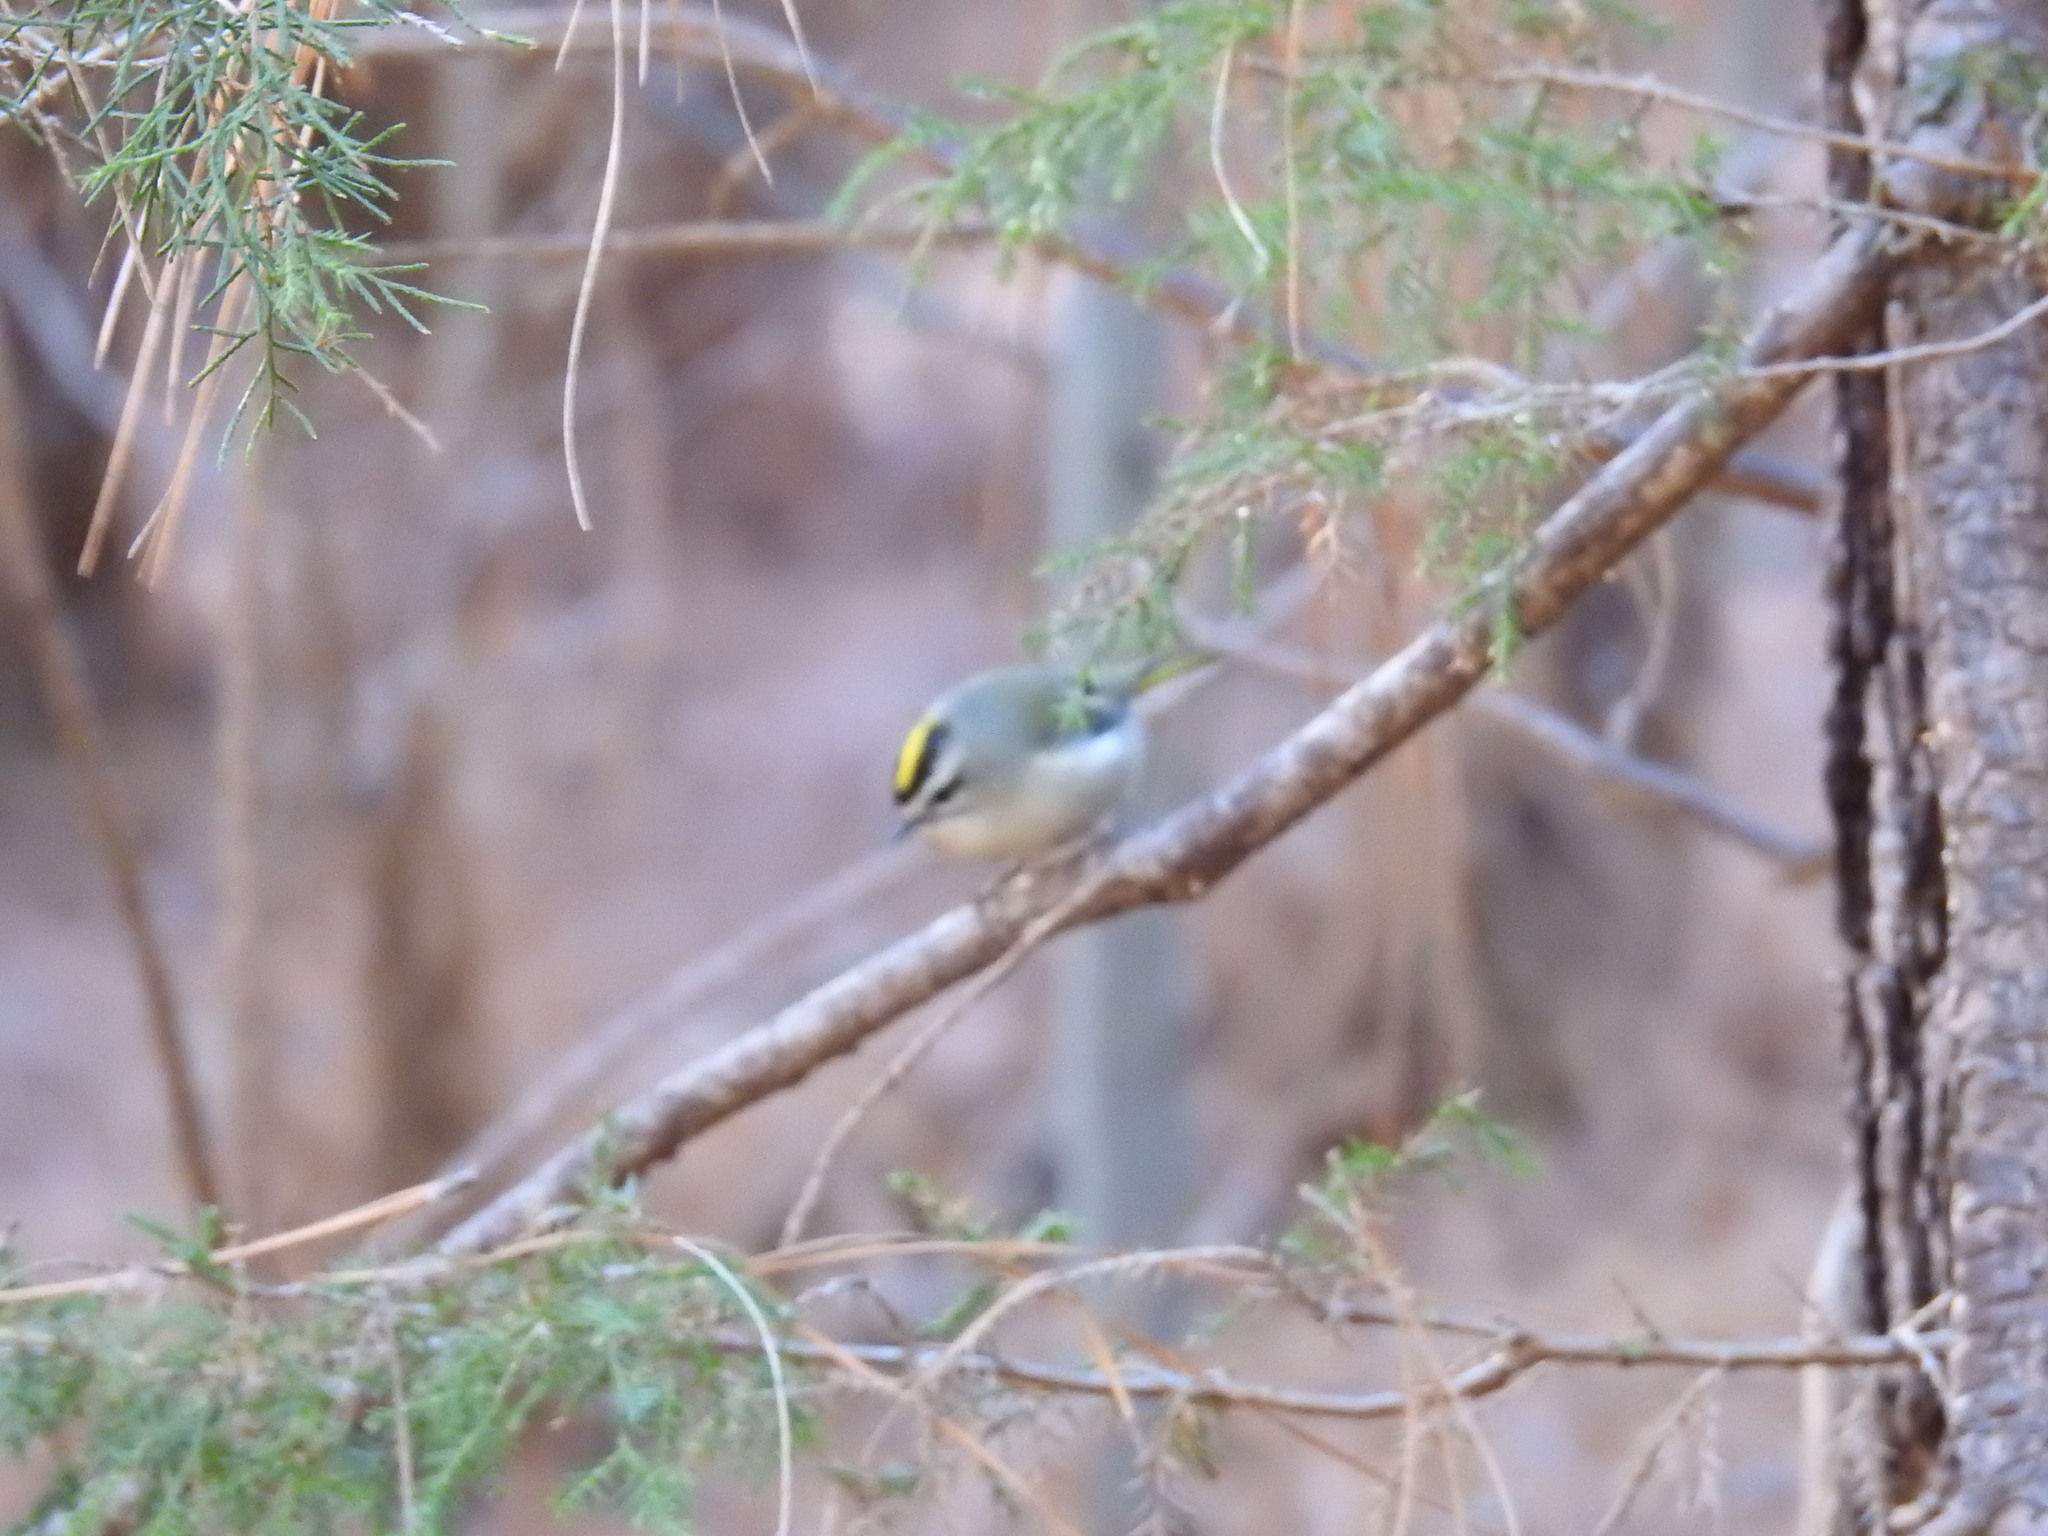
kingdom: Animalia
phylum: Chordata
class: Aves
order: Passeriformes
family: Regulidae
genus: Regulus
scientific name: Regulus satrapa
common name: Golden-crowned kinglet
